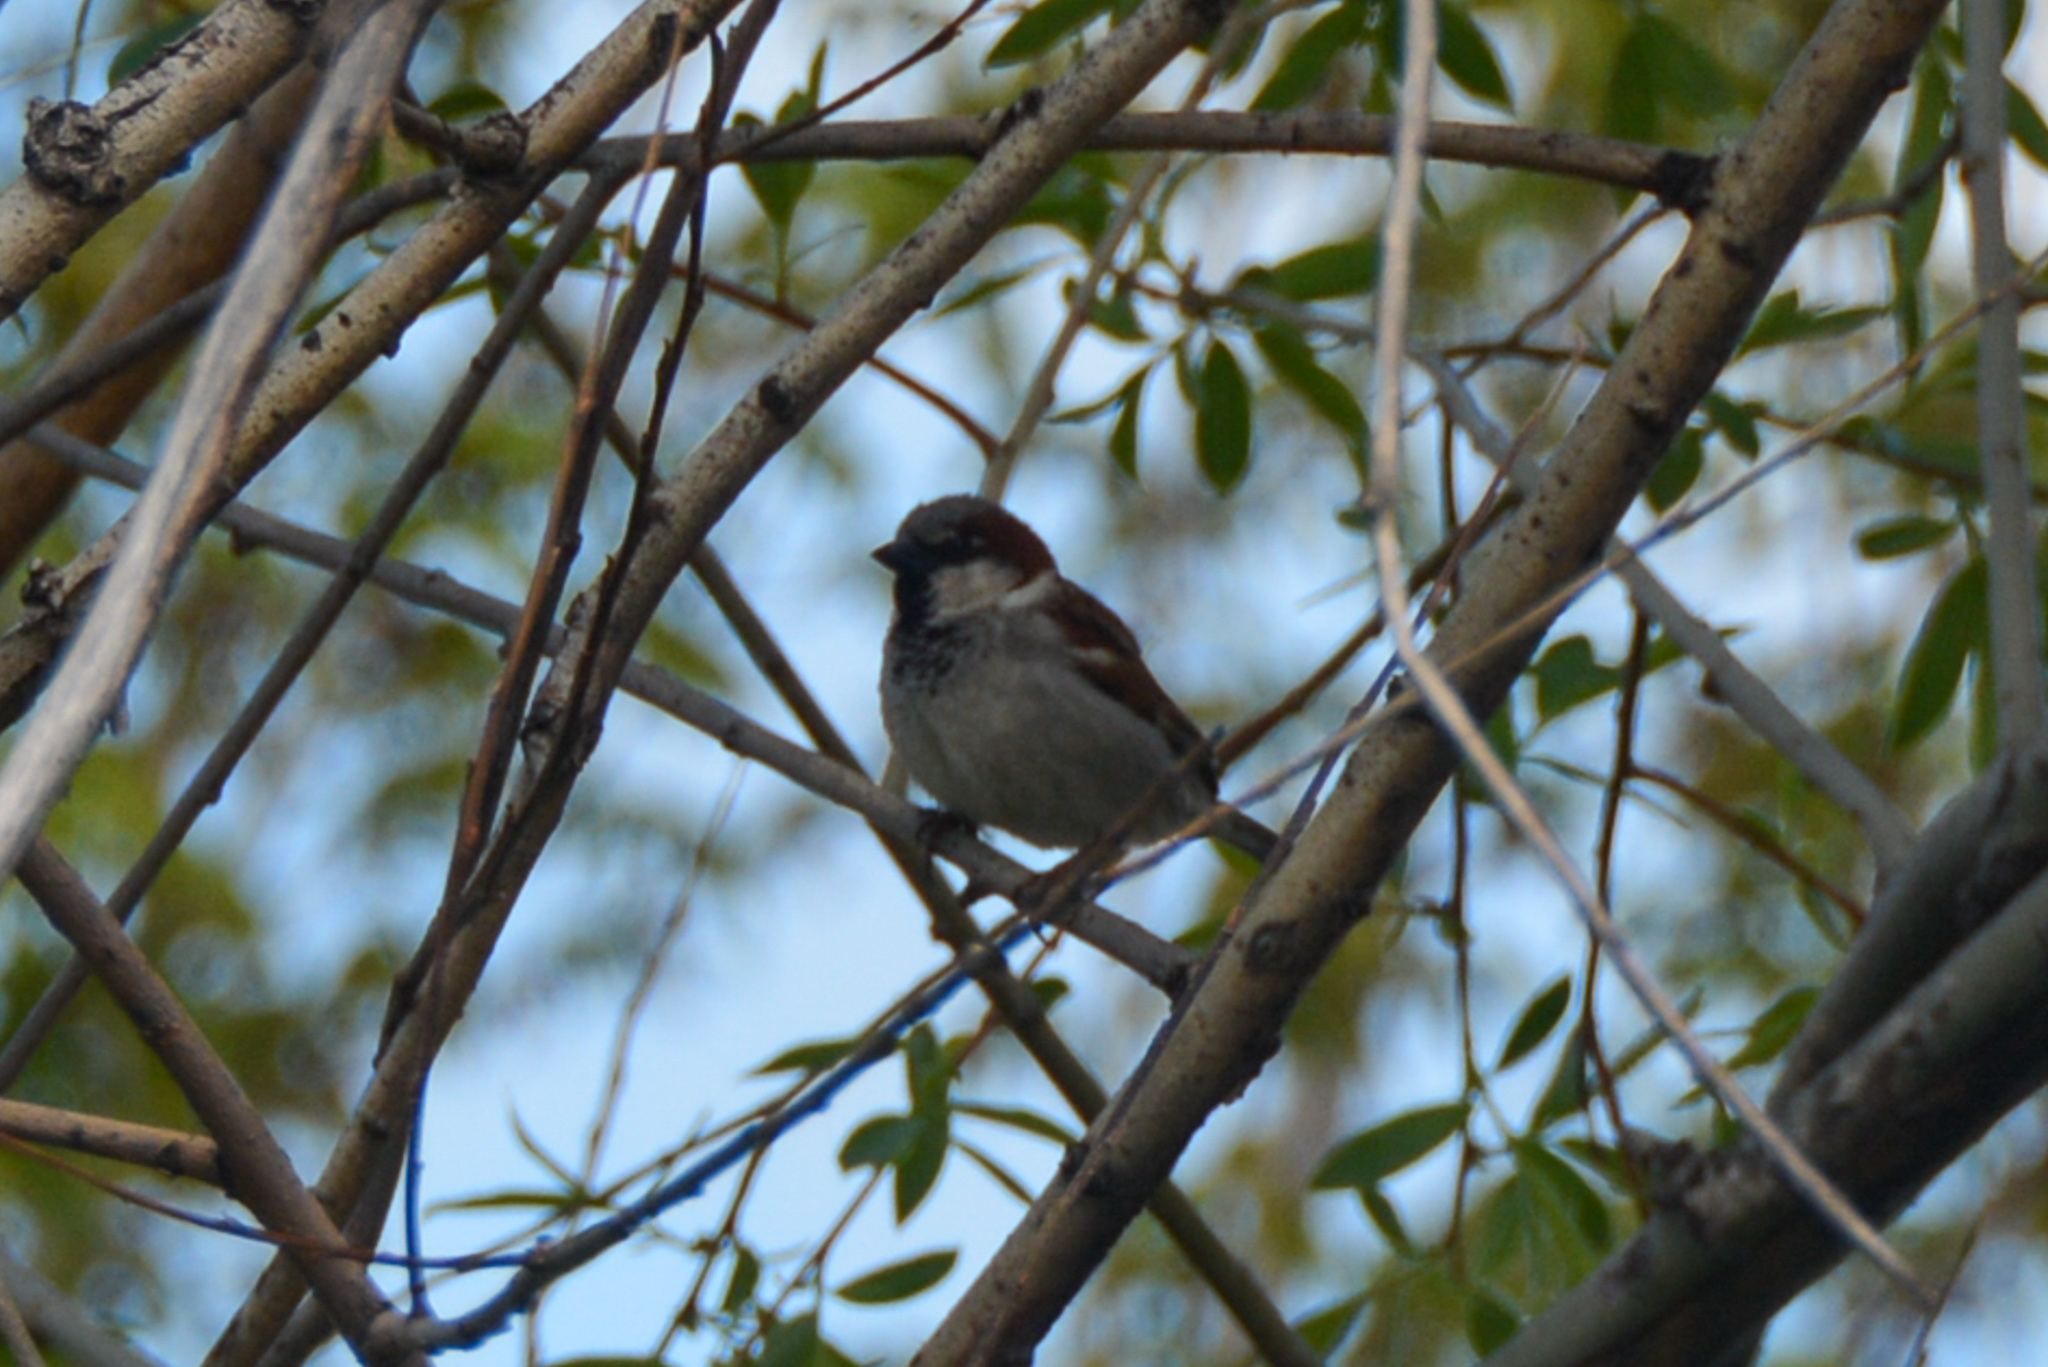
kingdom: Animalia
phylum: Chordata
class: Aves
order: Passeriformes
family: Passeridae
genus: Passer
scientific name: Passer domesticus
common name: House sparrow
